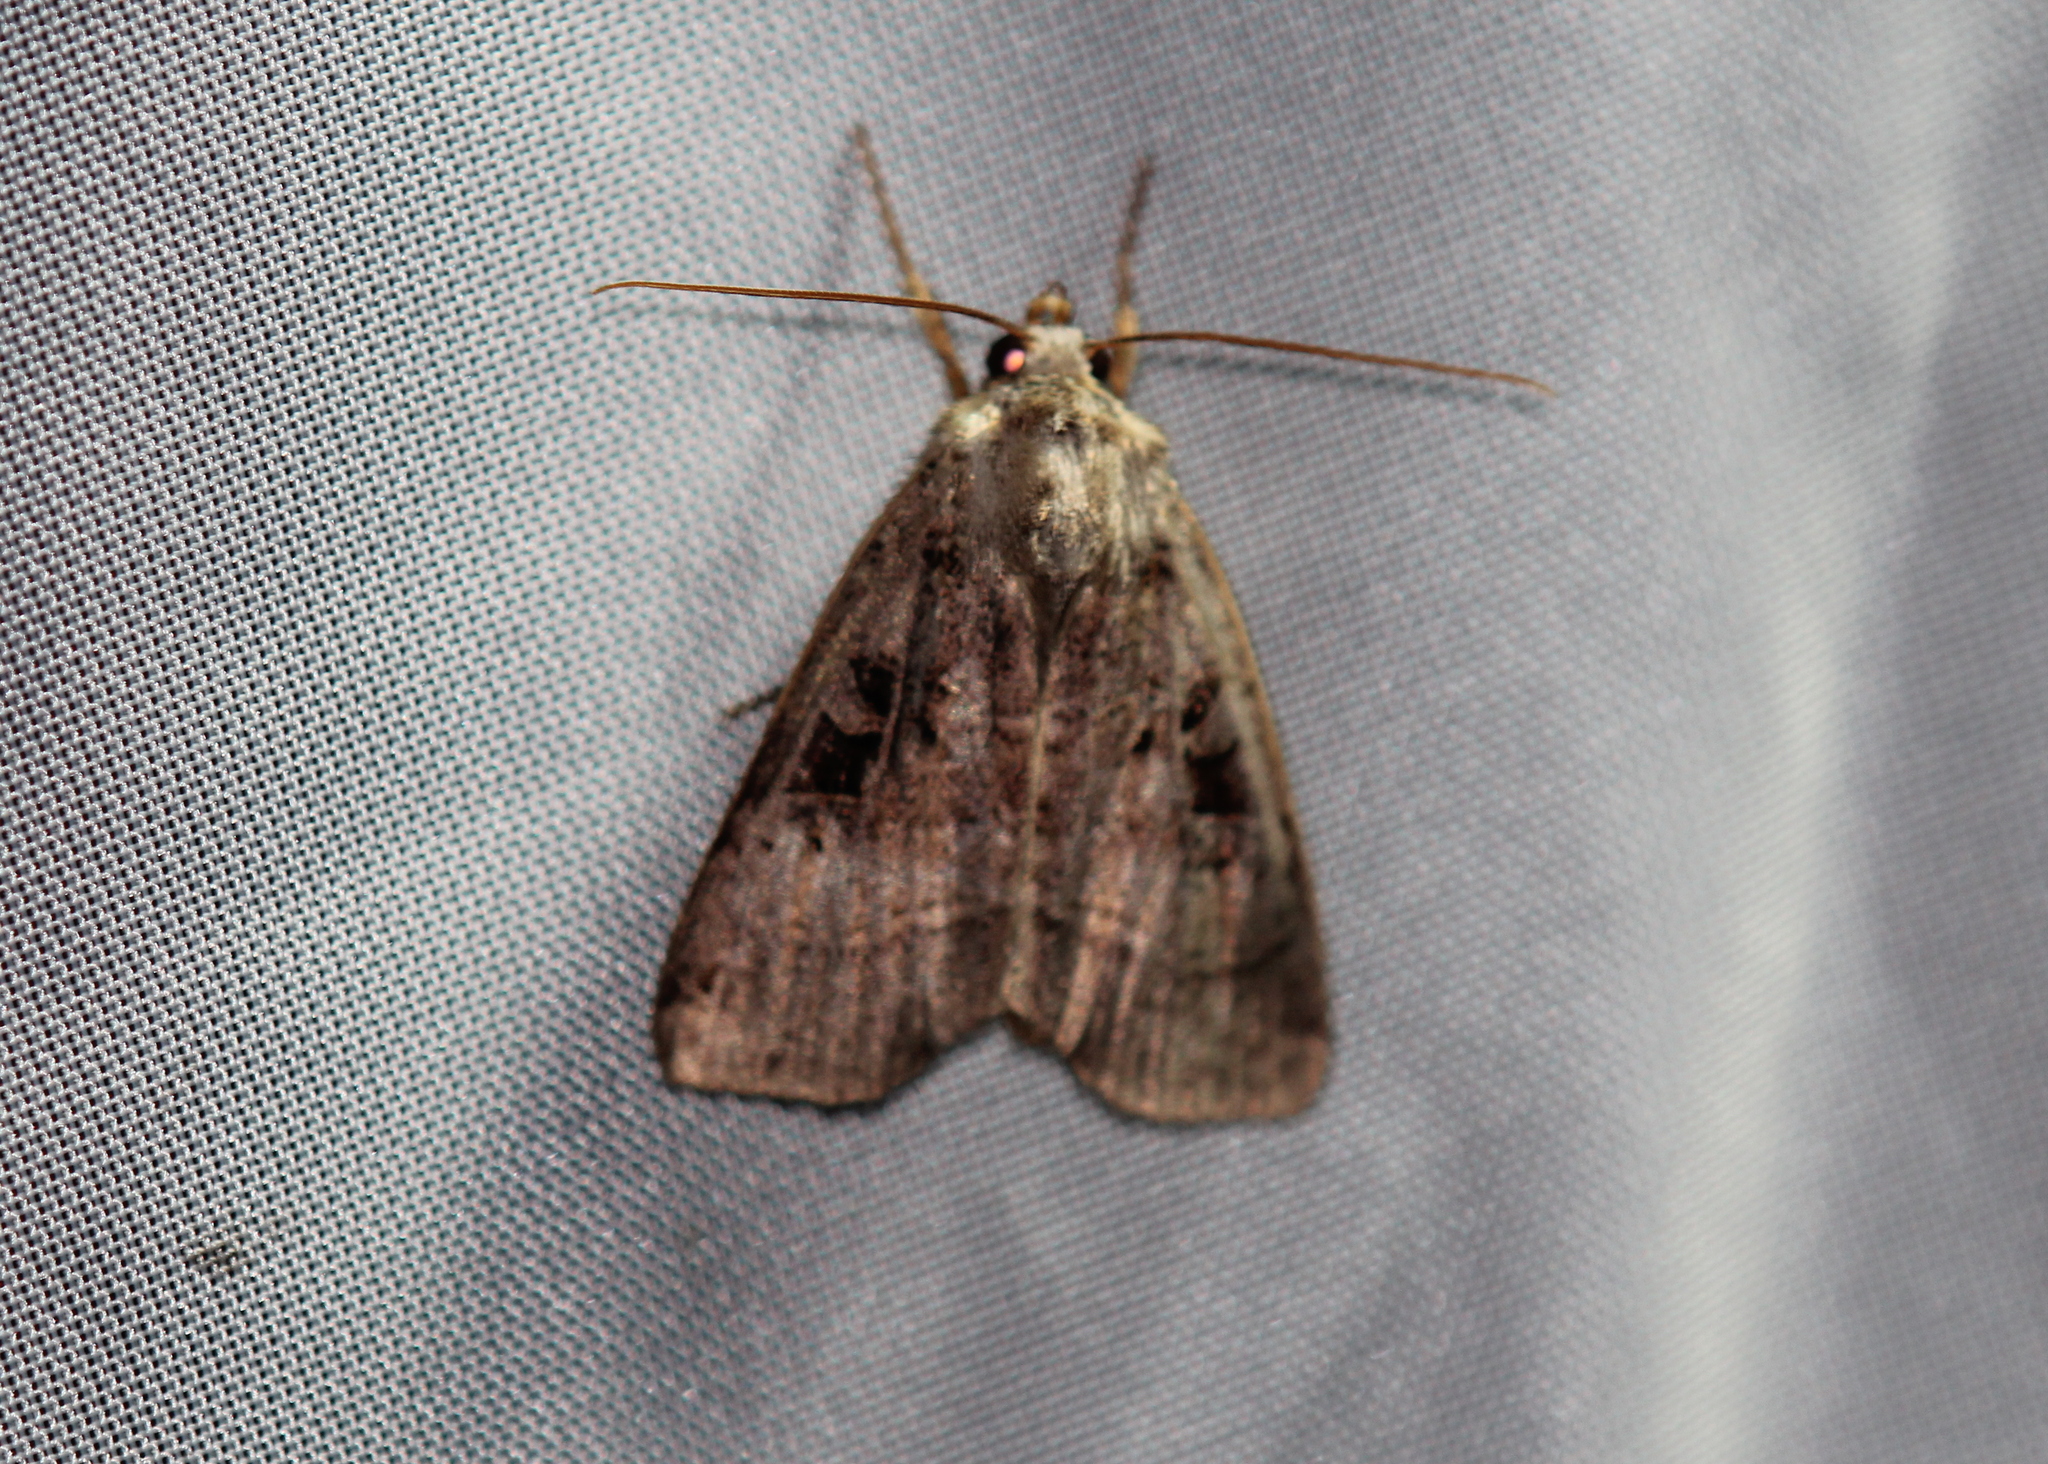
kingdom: Animalia
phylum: Arthropoda
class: Insecta
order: Lepidoptera
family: Noctuidae
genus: Xestia
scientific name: Xestia normaniana
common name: Norman's dart moth
